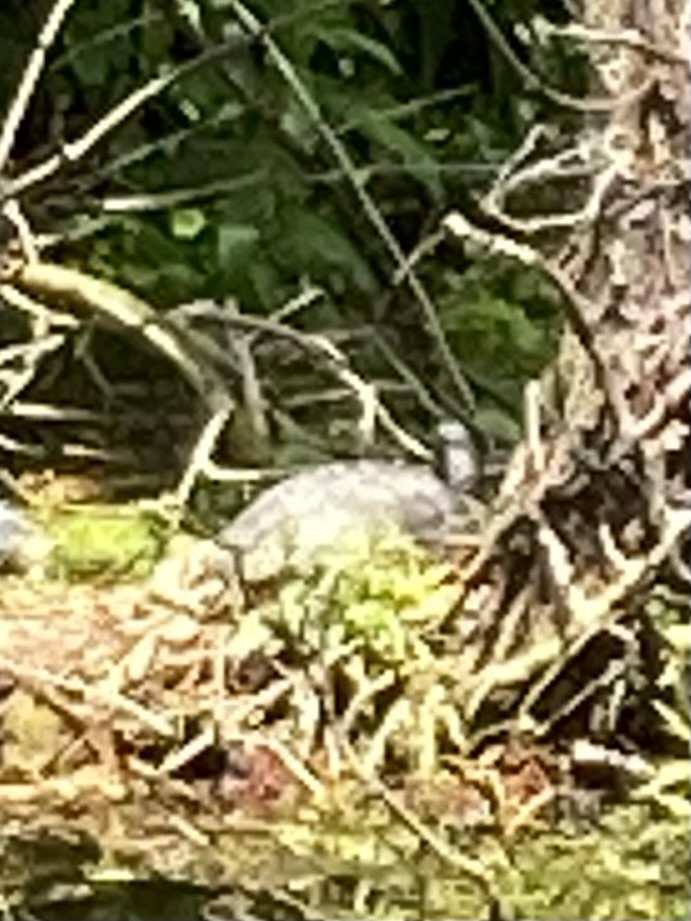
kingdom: Animalia
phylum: Chordata
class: Testudines
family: Emydidae
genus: Trachemys
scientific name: Trachemys scripta
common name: Slider
